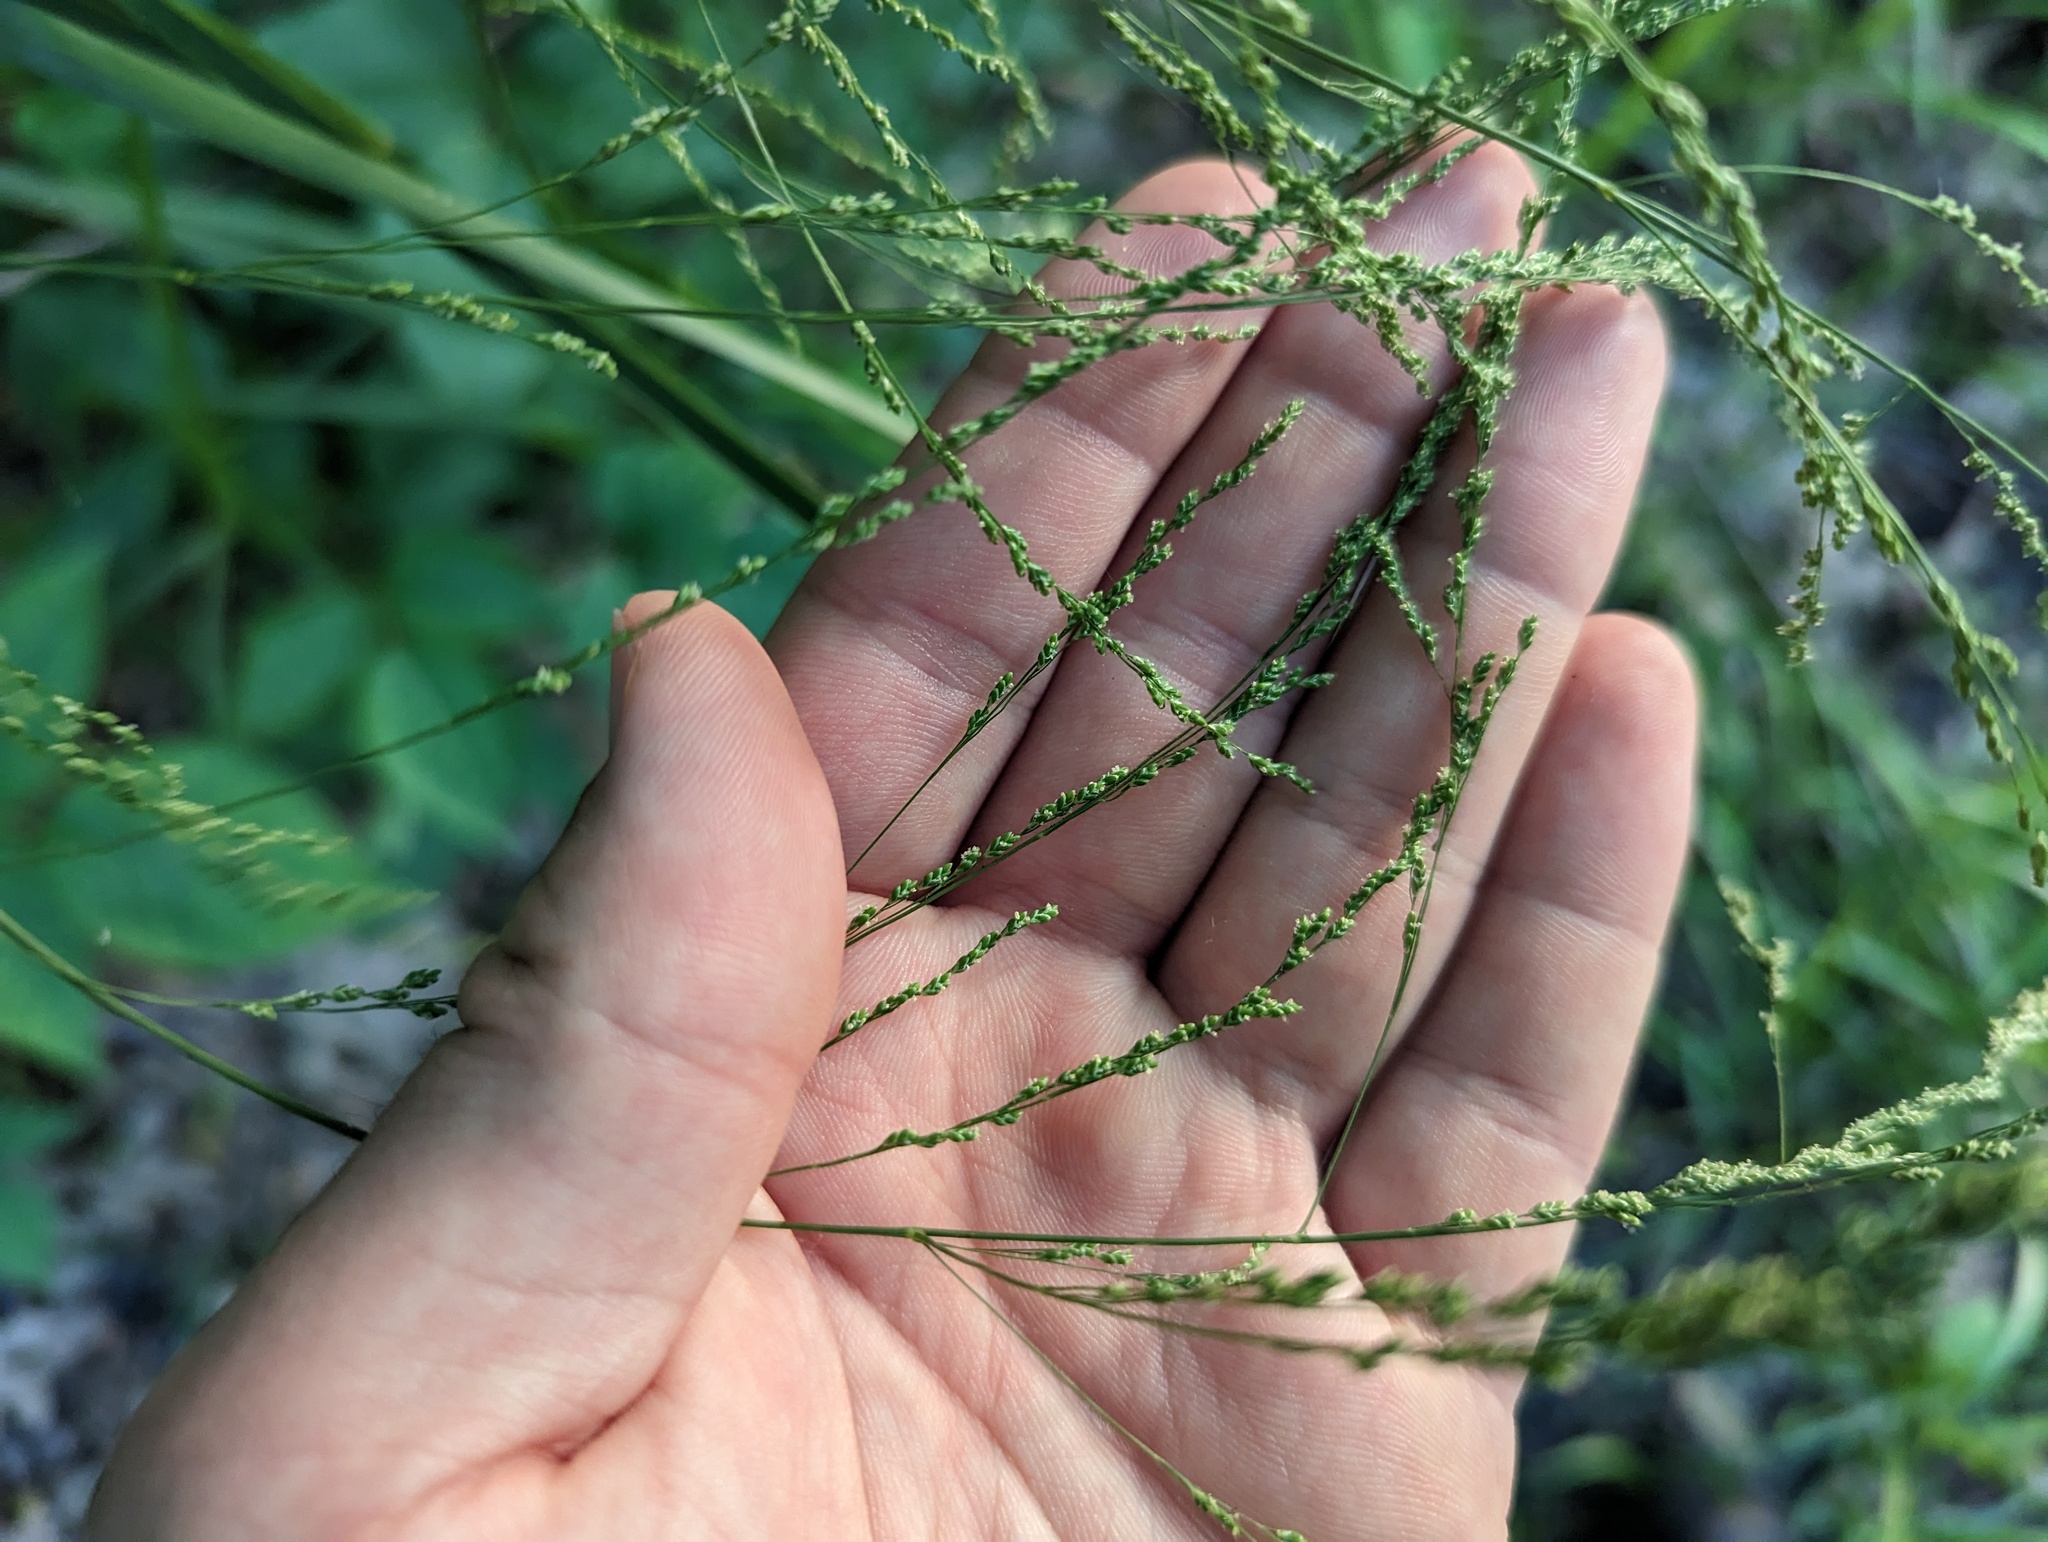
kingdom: Plantae
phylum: Tracheophyta
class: Liliopsida
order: Poales
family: Poaceae
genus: Glyceria
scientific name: Glyceria striata
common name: Fowl manna grass
